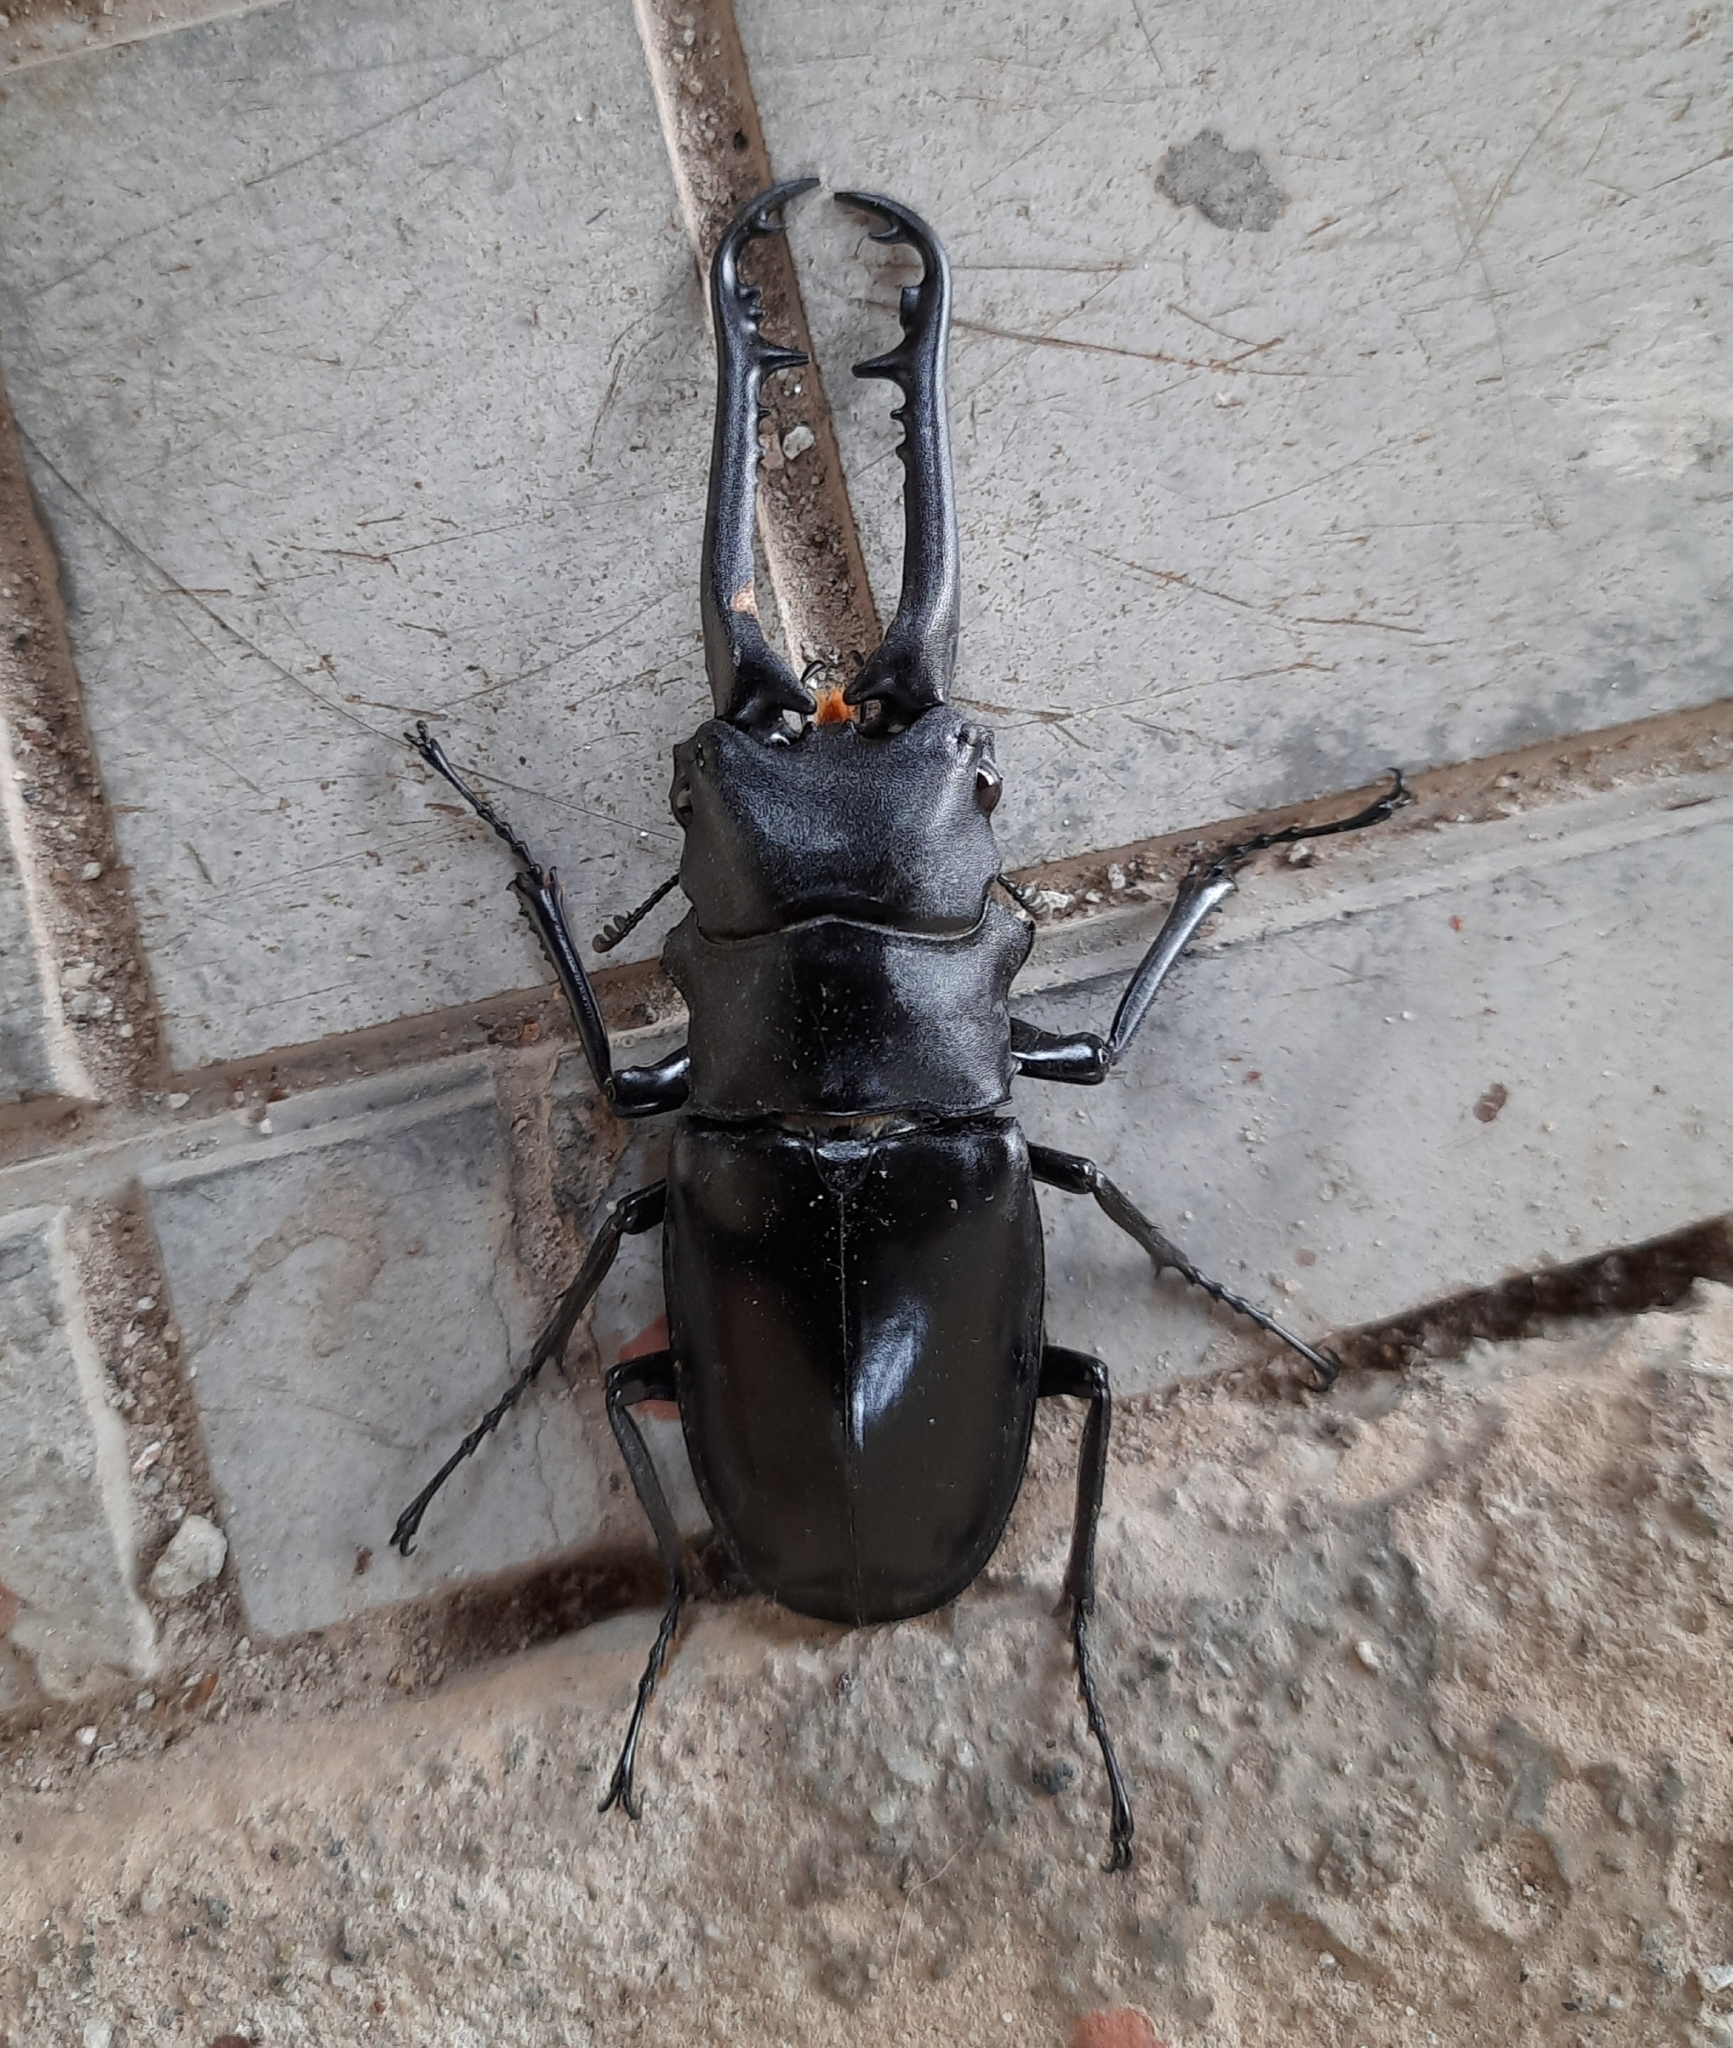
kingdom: Animalia
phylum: Arthropoda
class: Insecta
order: Coleoptera
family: Lucanidae
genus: Prosopocoilus
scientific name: Prosopocoilus girafa
